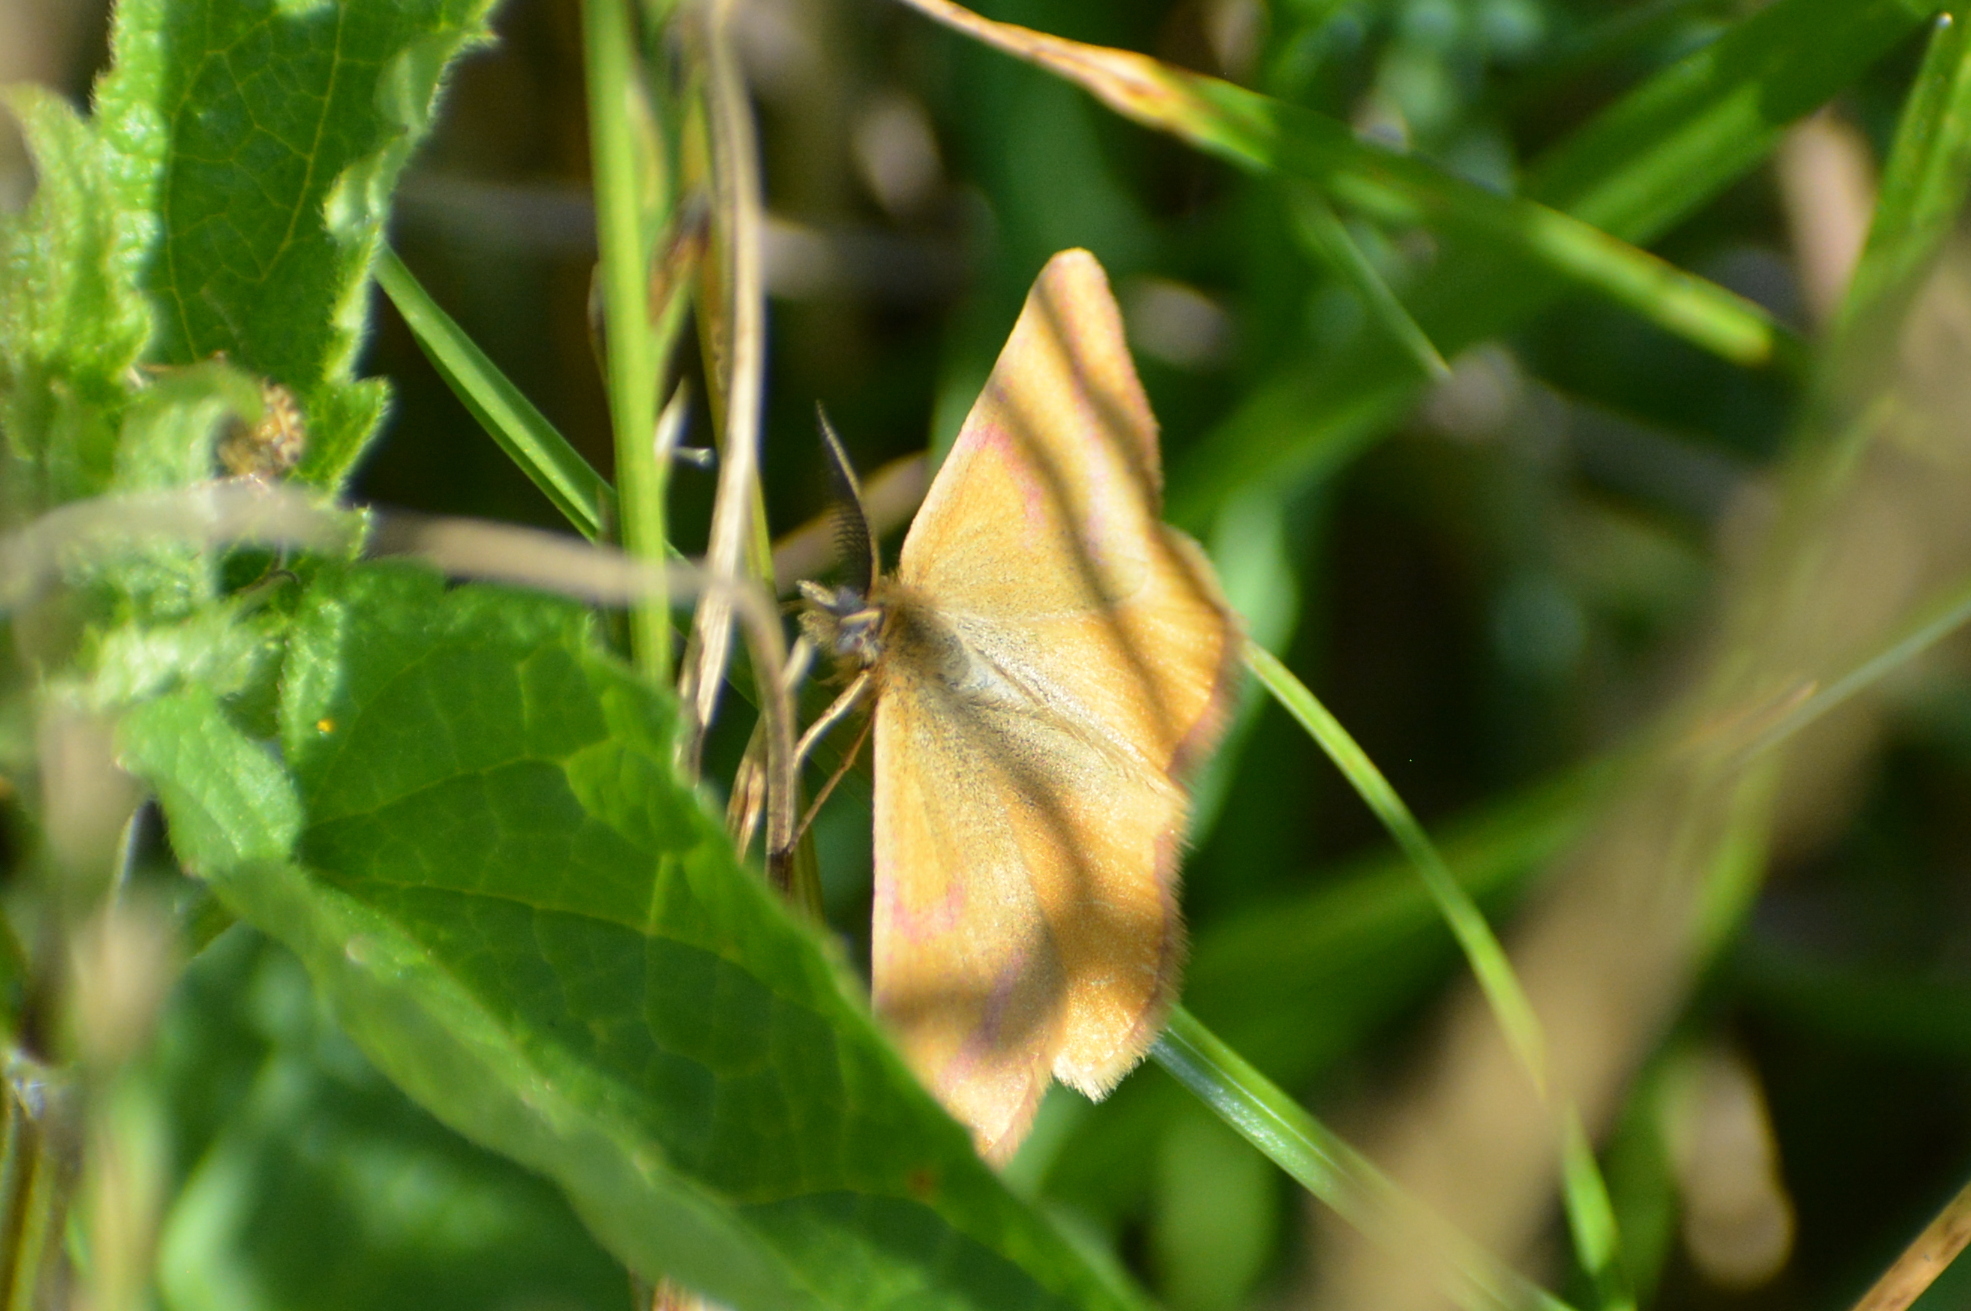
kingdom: Animalia
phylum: Arthropoda
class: Insecta
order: Lepidoptera
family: Geometridae
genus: Lythria
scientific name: Lythria purpuraria
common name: Purple-barred yellow
